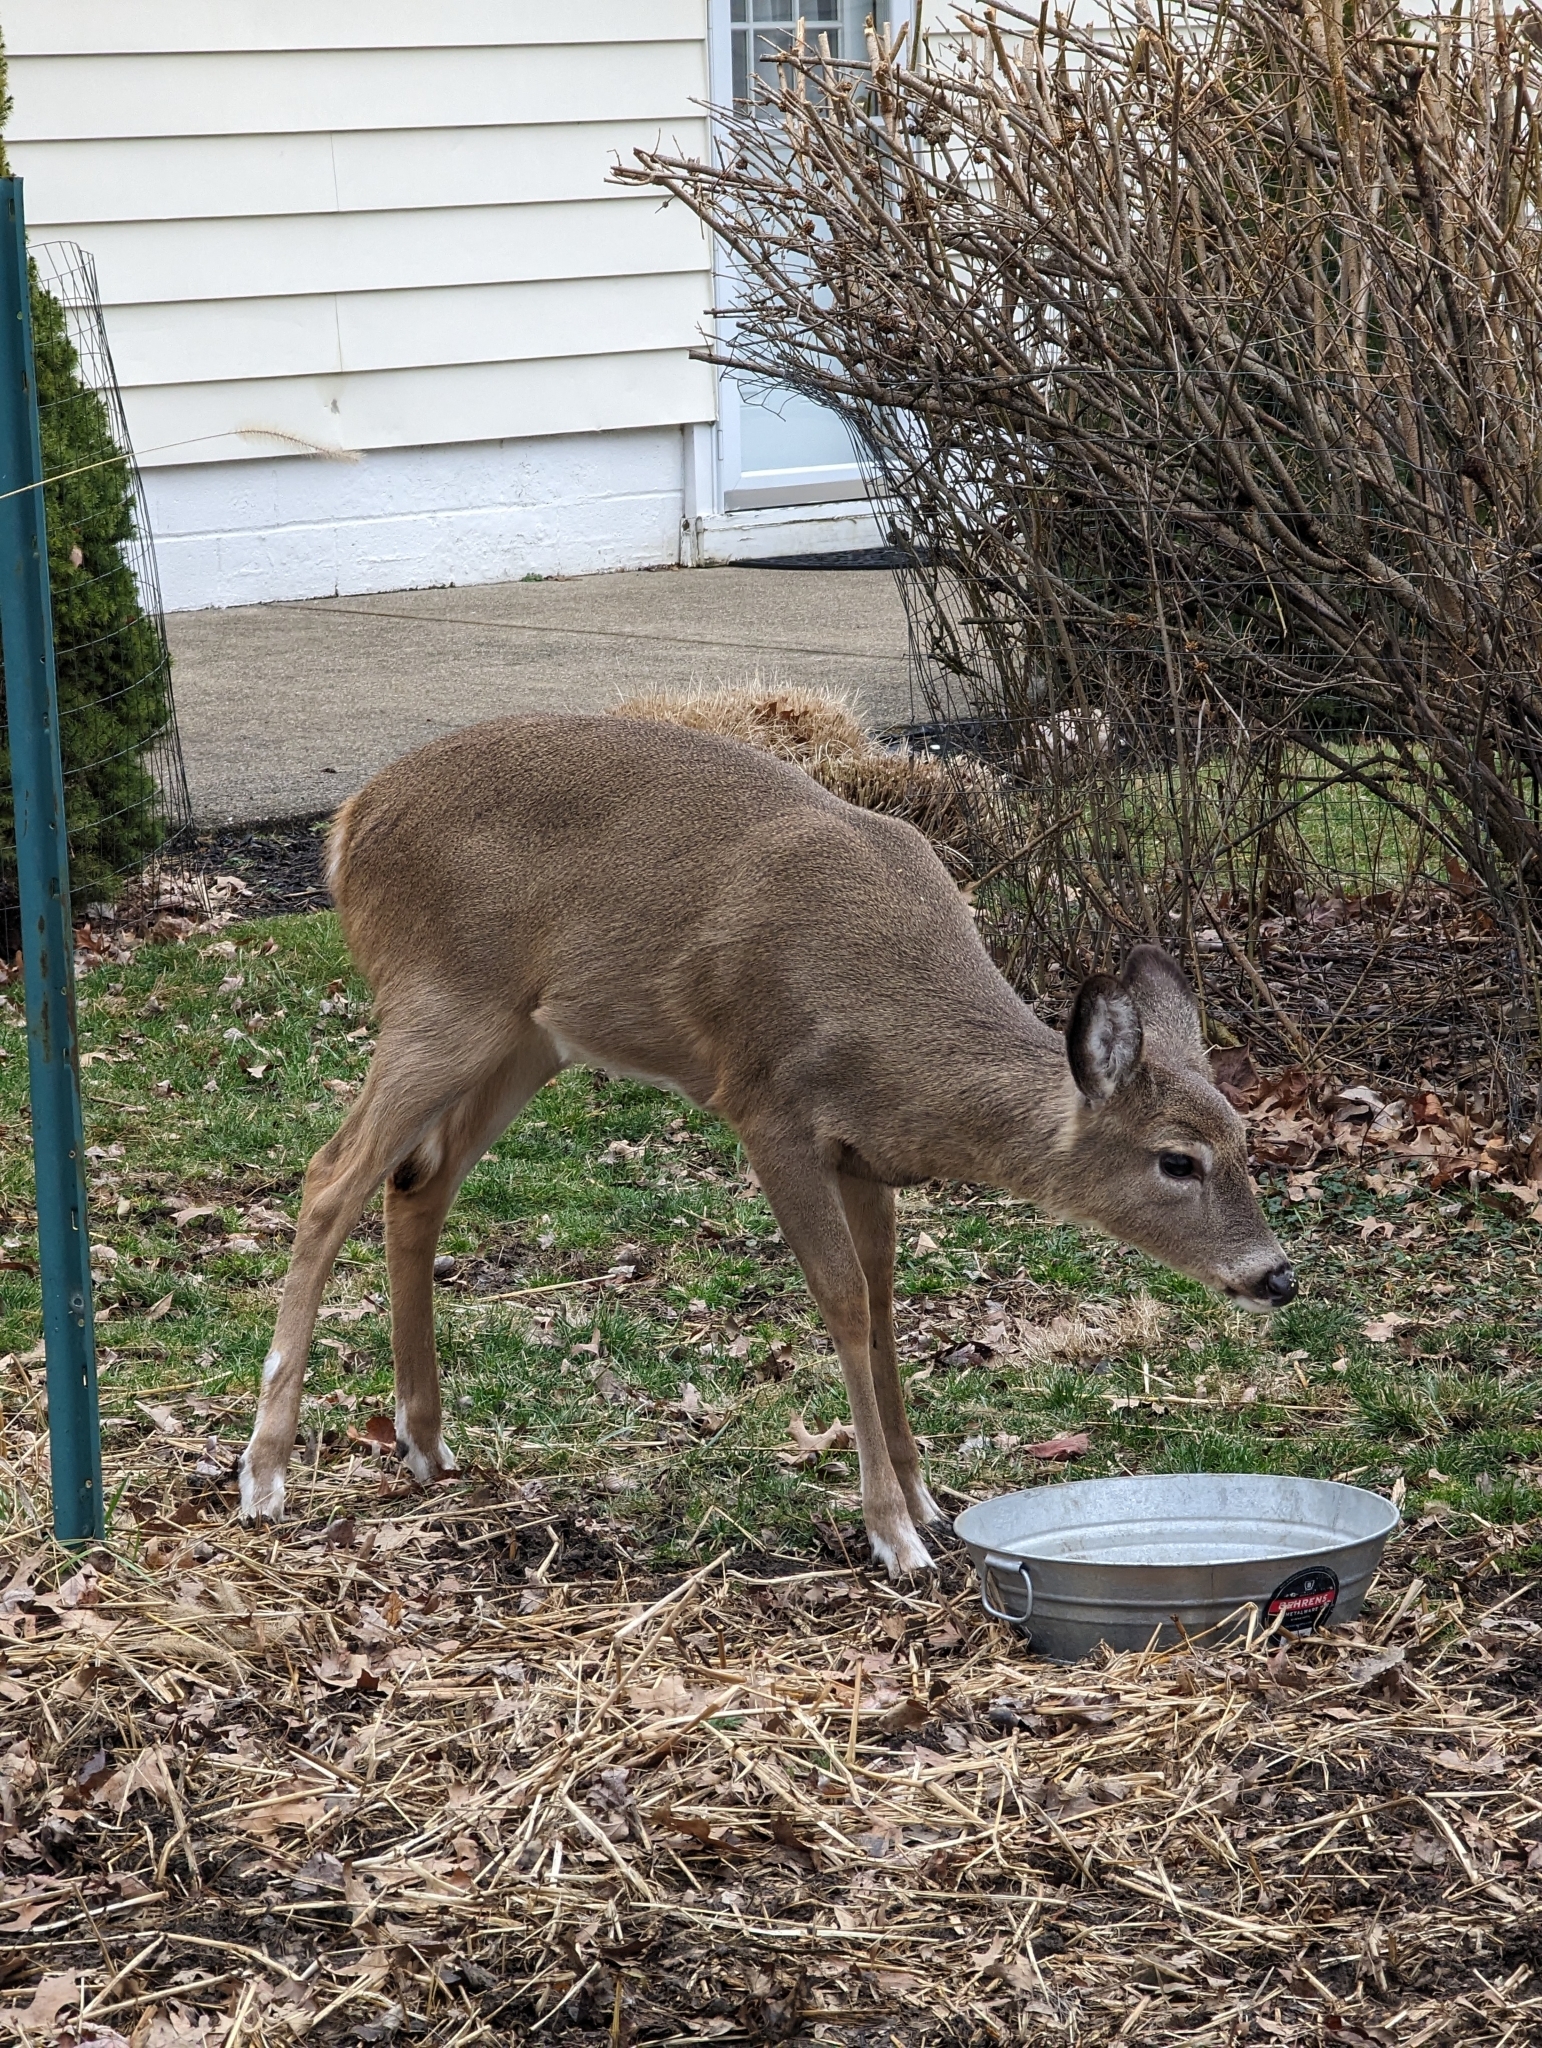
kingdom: Animalia
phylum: Chordata
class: Mammalia
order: Artiodactyla
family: Cervidae
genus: Odocoileus
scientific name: Odocoileus virginianus
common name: White-tailed deer
